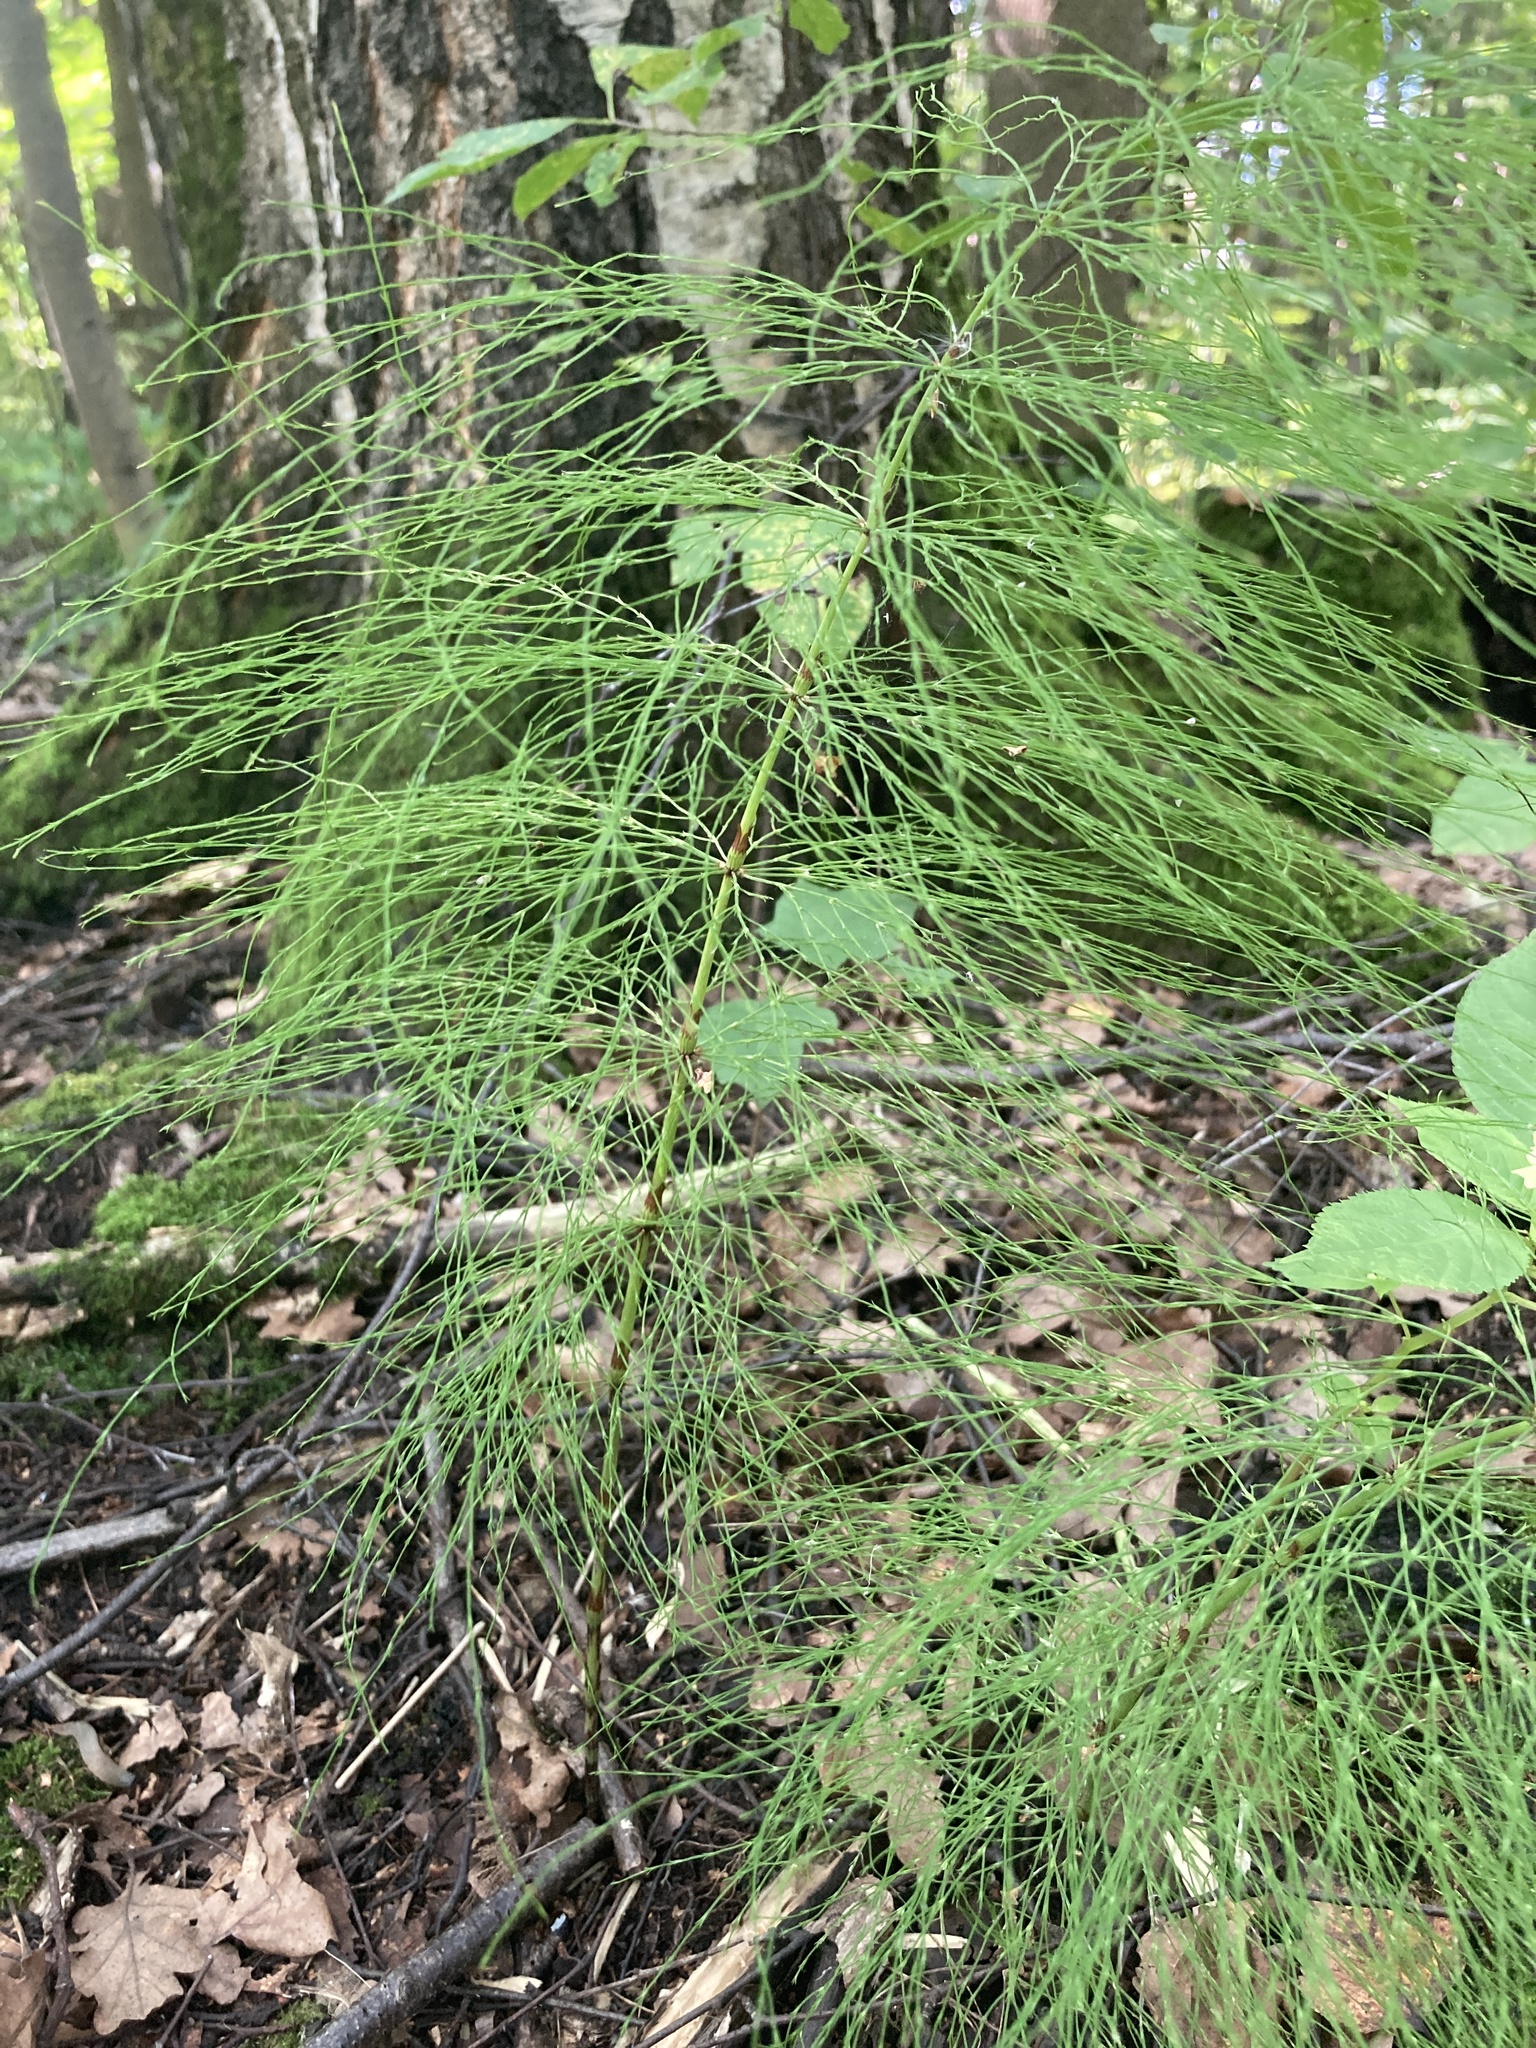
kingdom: Plantae
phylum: Tracheophyta
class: Polypodiopsida
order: Equisetales
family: Equisetaceae
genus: Equisetum
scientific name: Equisetum sylvaticum
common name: Wood horsetail
